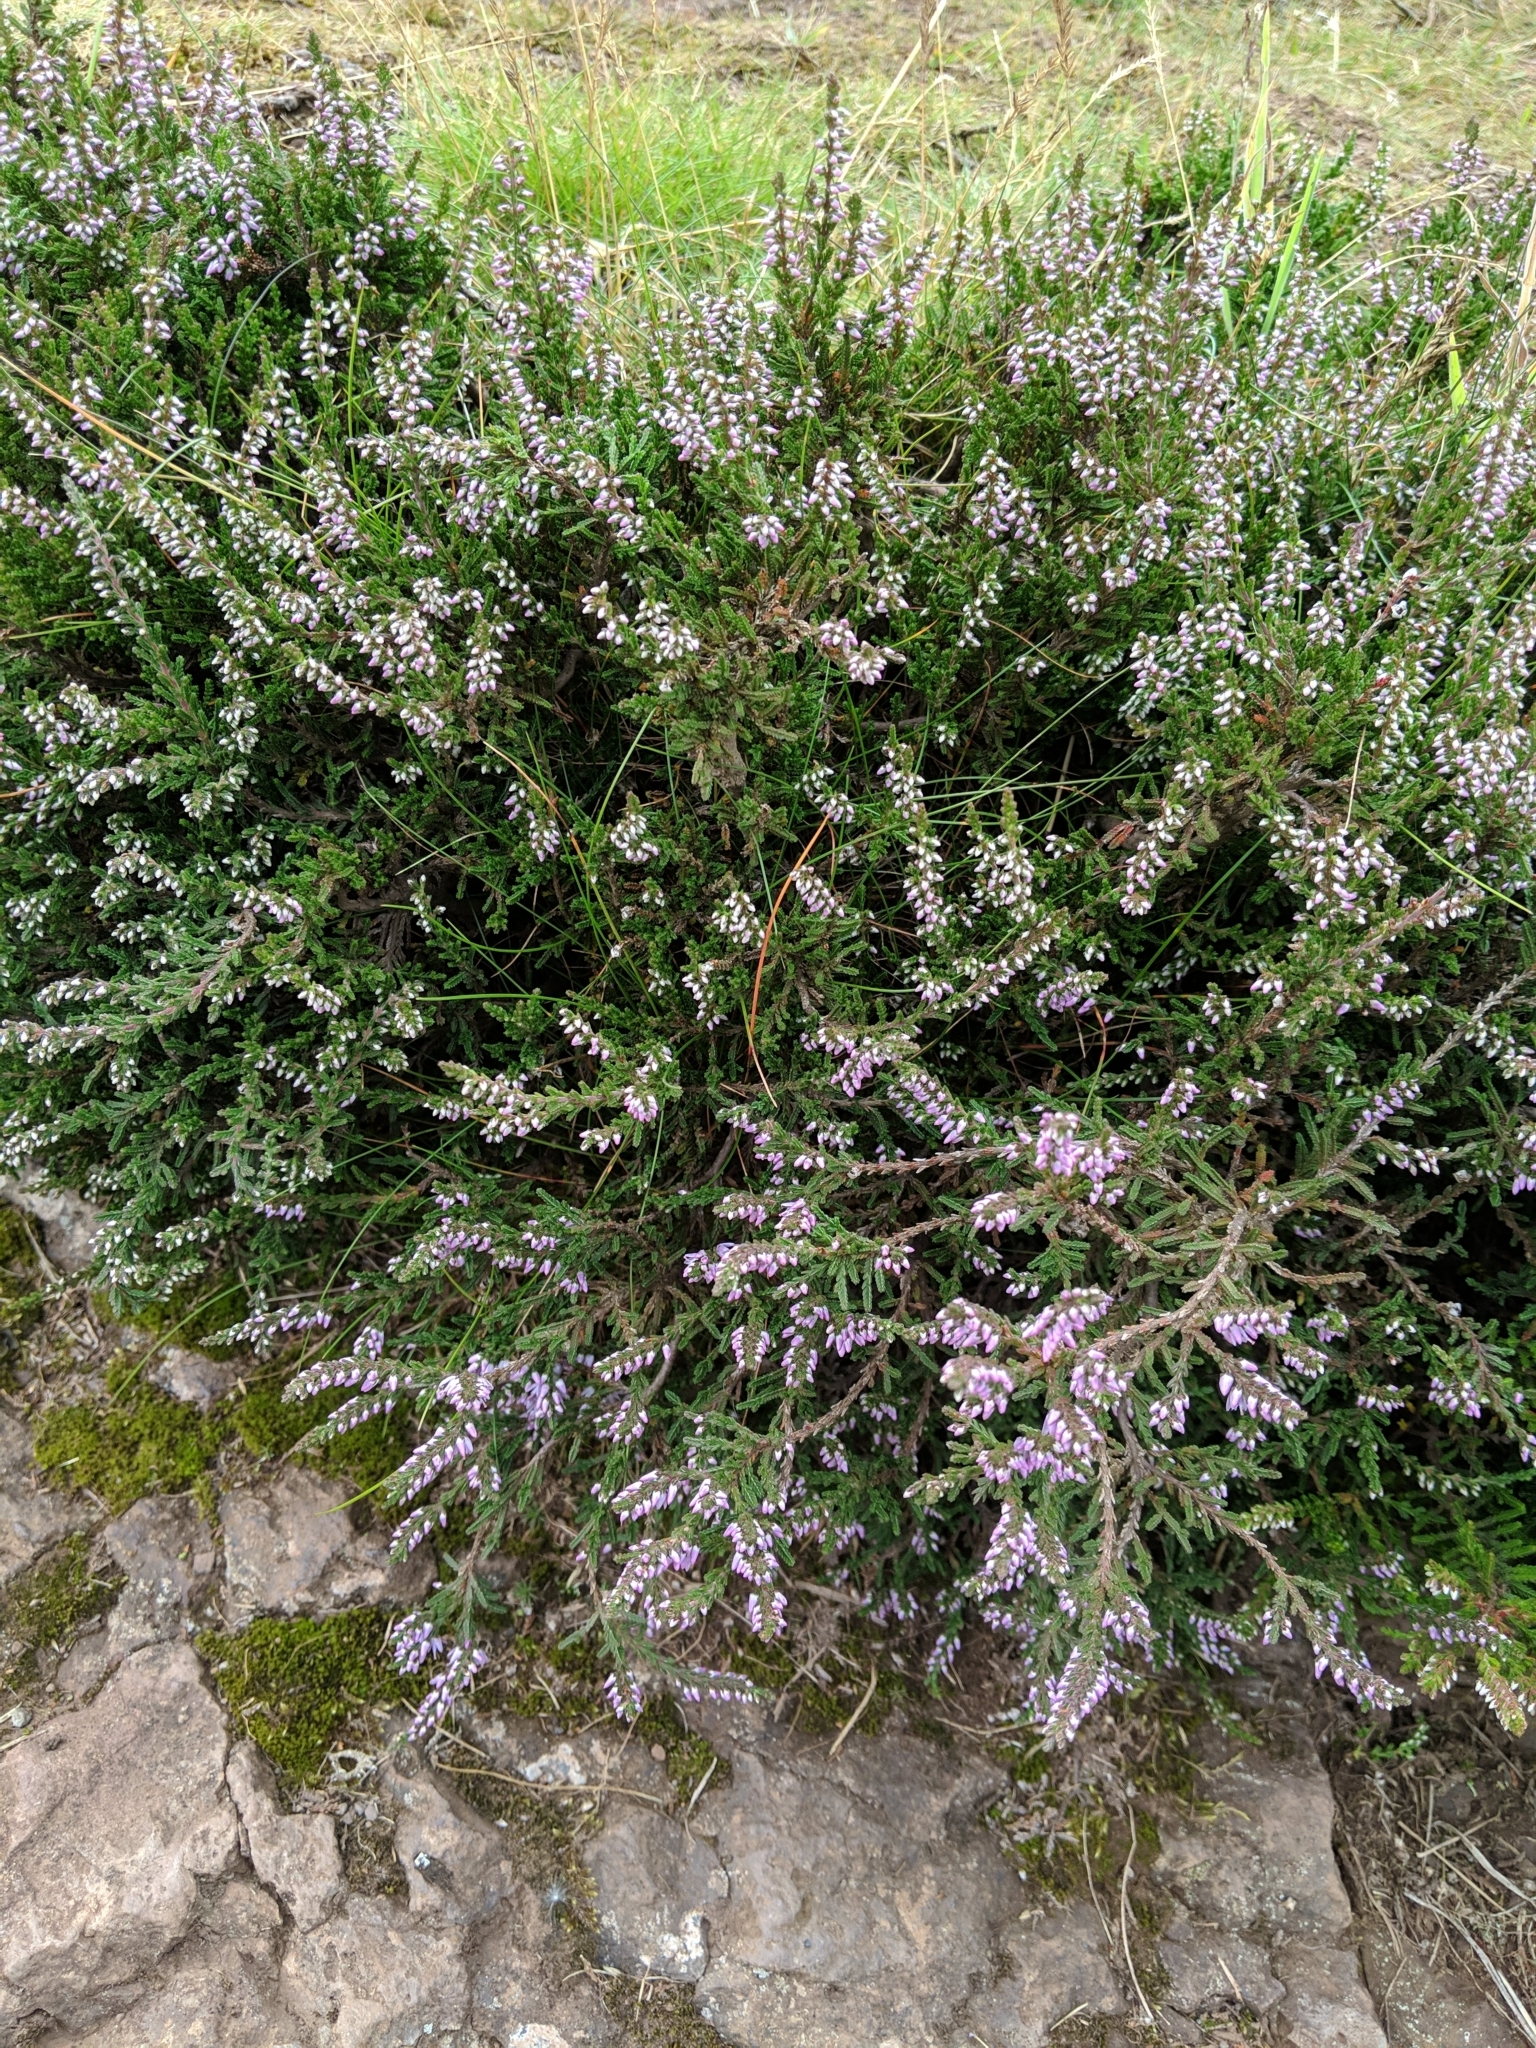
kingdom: Plantae
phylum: Tracheophyta
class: Magnoliopsida
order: Ericales
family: Ericaceae
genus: Calluna
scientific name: Calluna vulgaris
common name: Heather
